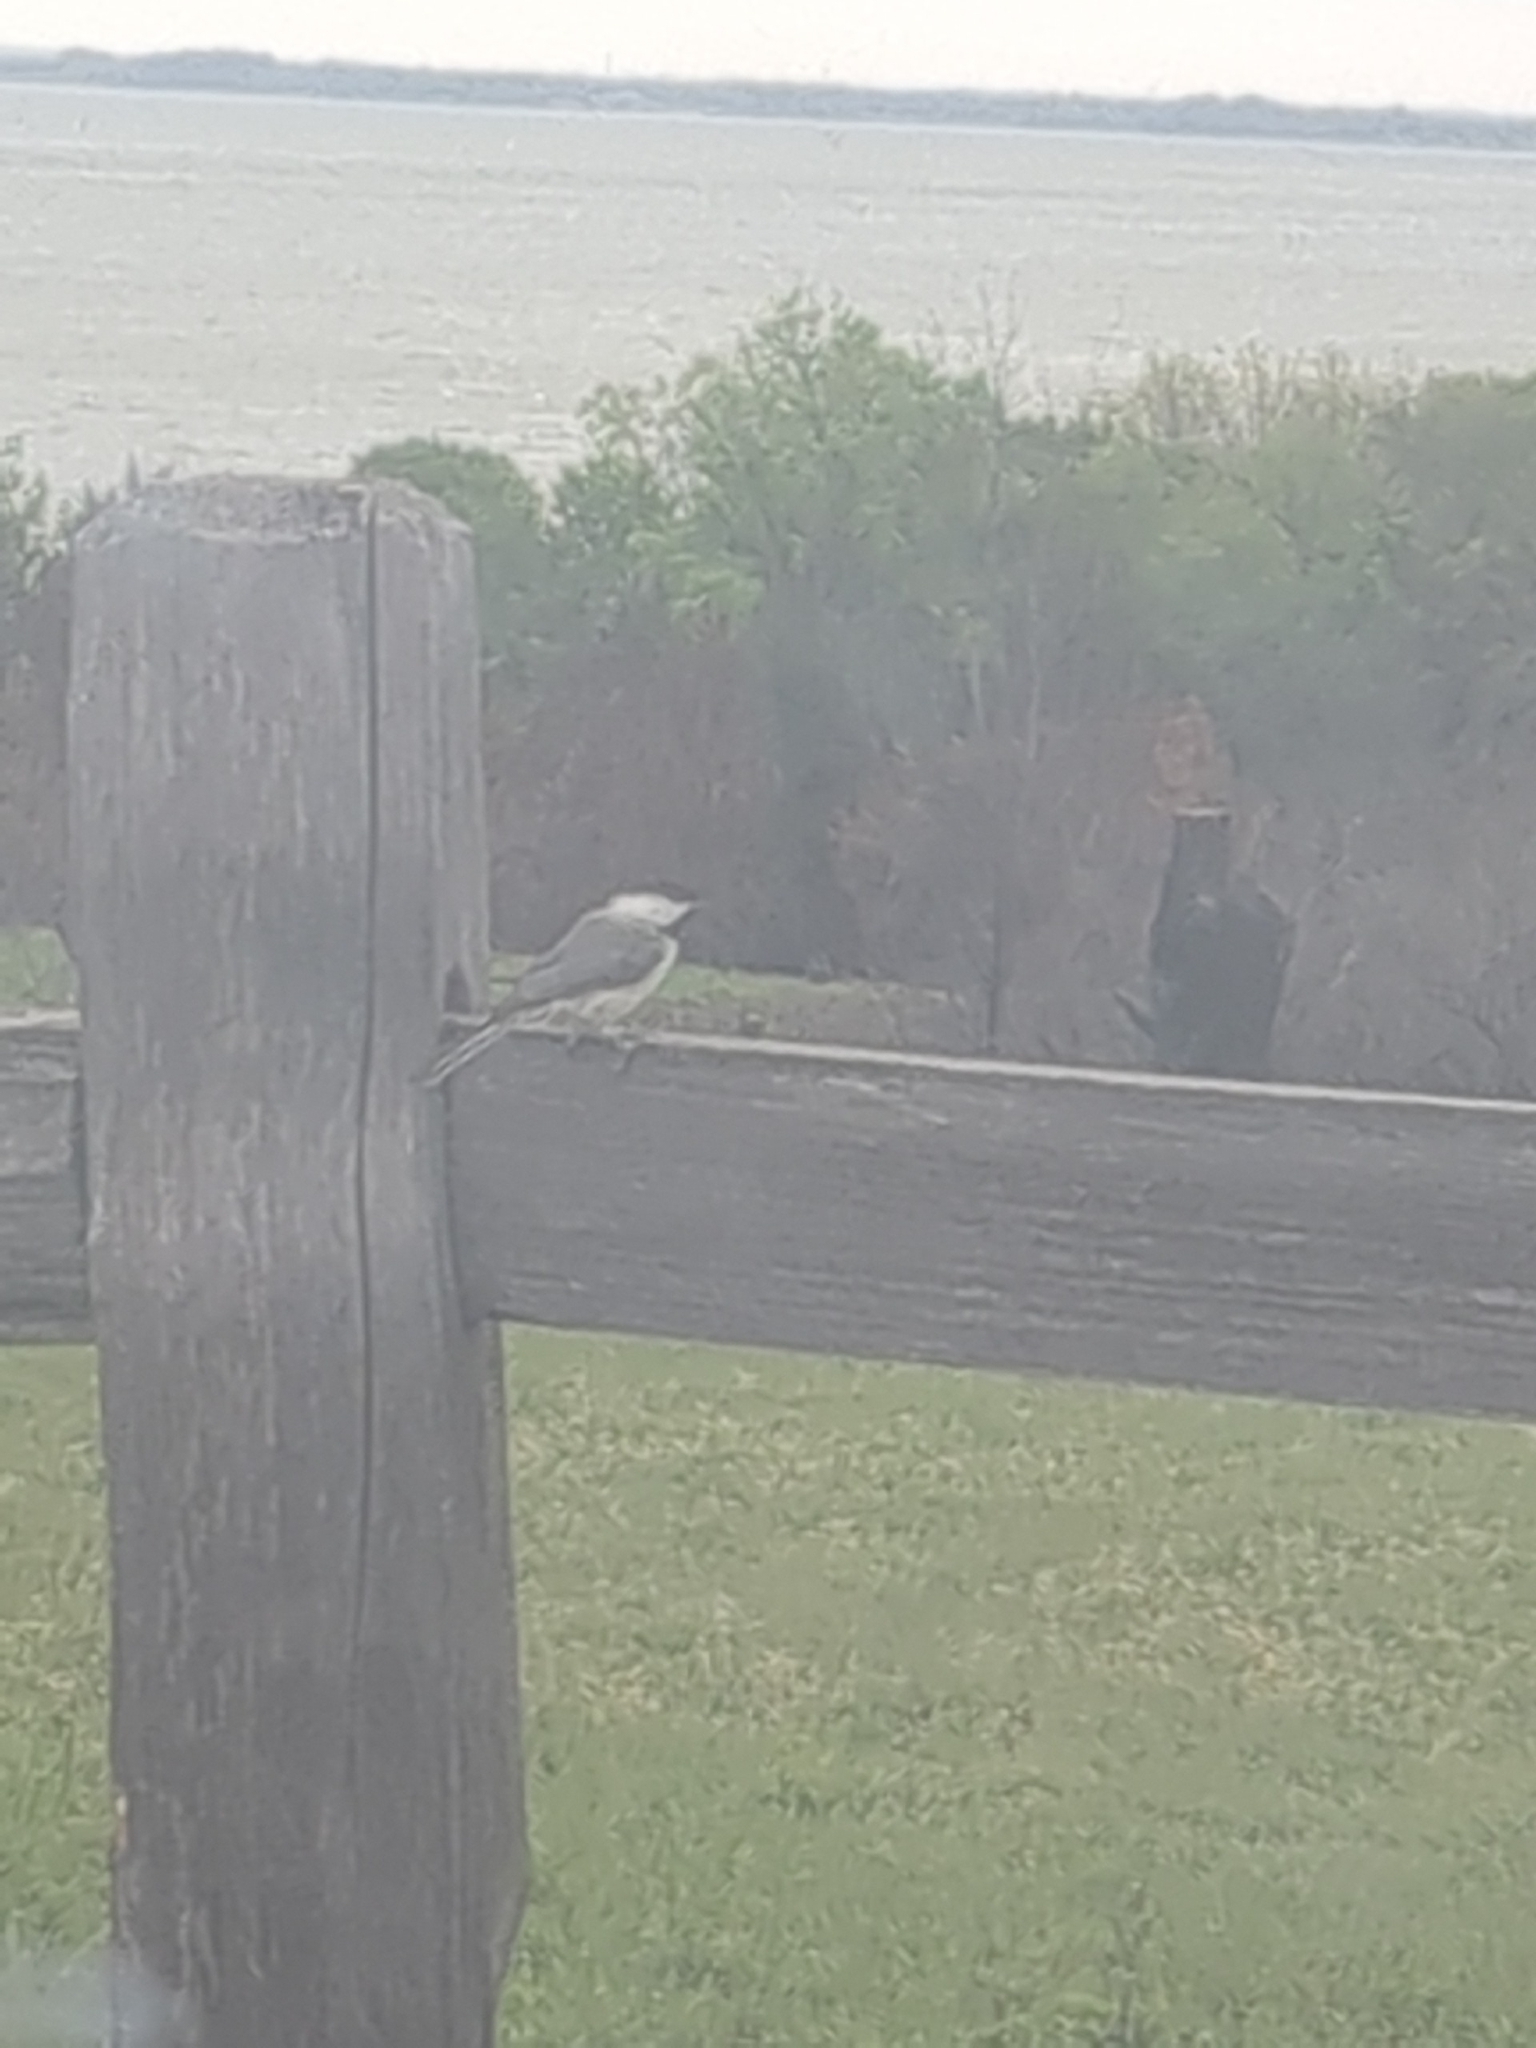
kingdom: Animalia
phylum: Chordata
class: Aves
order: Passeriformes
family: Paridae
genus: Poecile
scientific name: Poecile carolinensis
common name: Carolina chickadee
